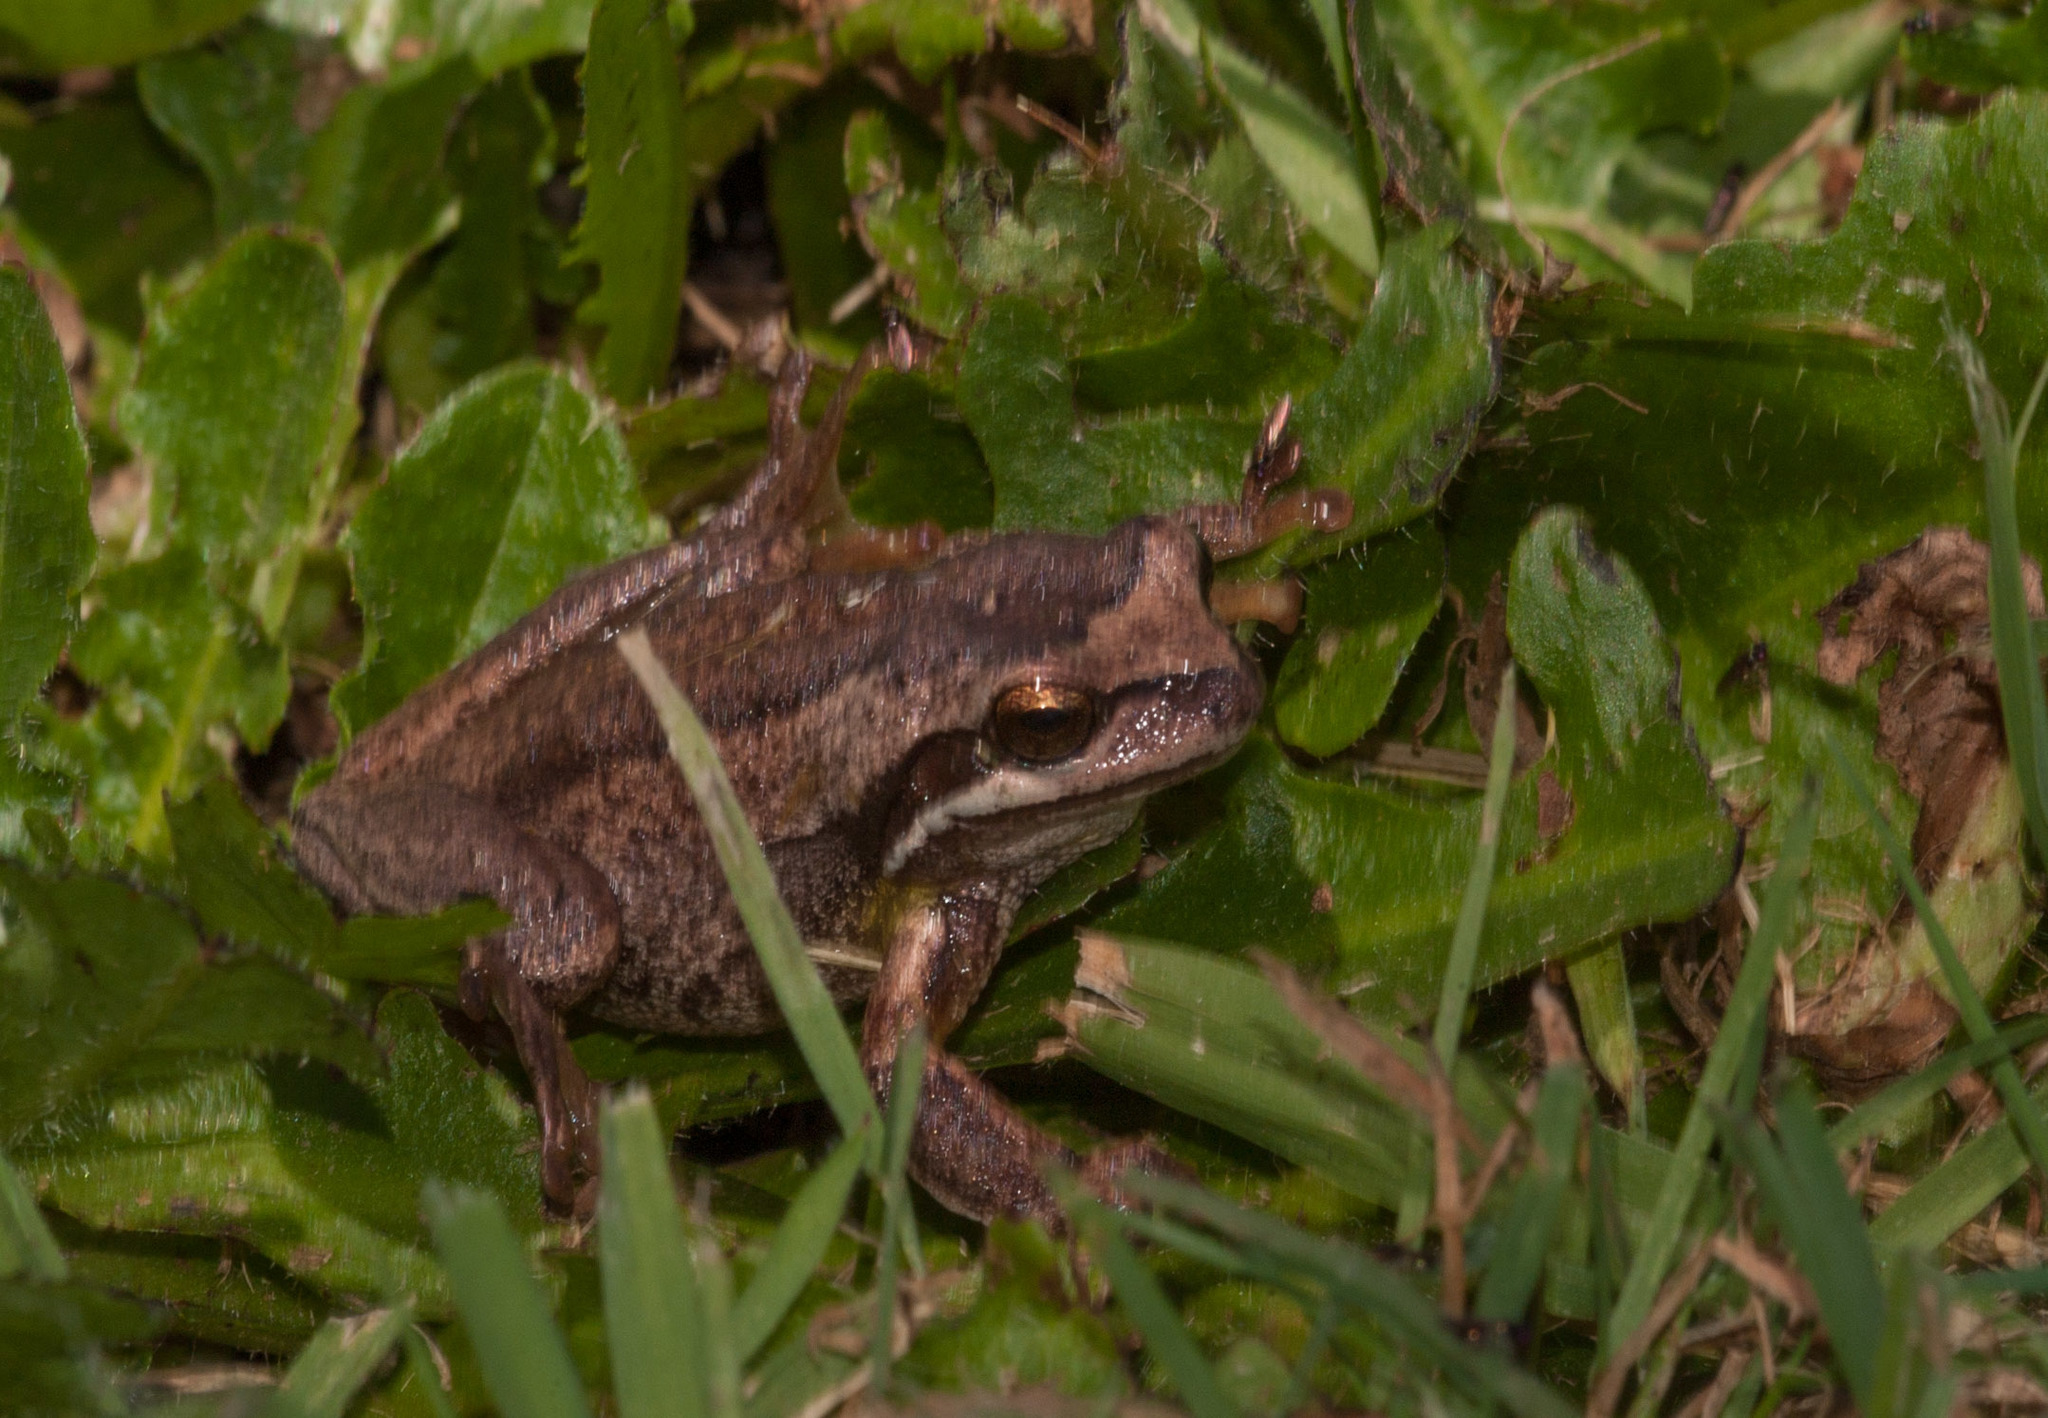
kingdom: Animalia
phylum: Chordata
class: Amphibia
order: Anura
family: Pelodryadidae
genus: Litoria
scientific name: Litoria ewingii
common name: Southern brown tree frog
